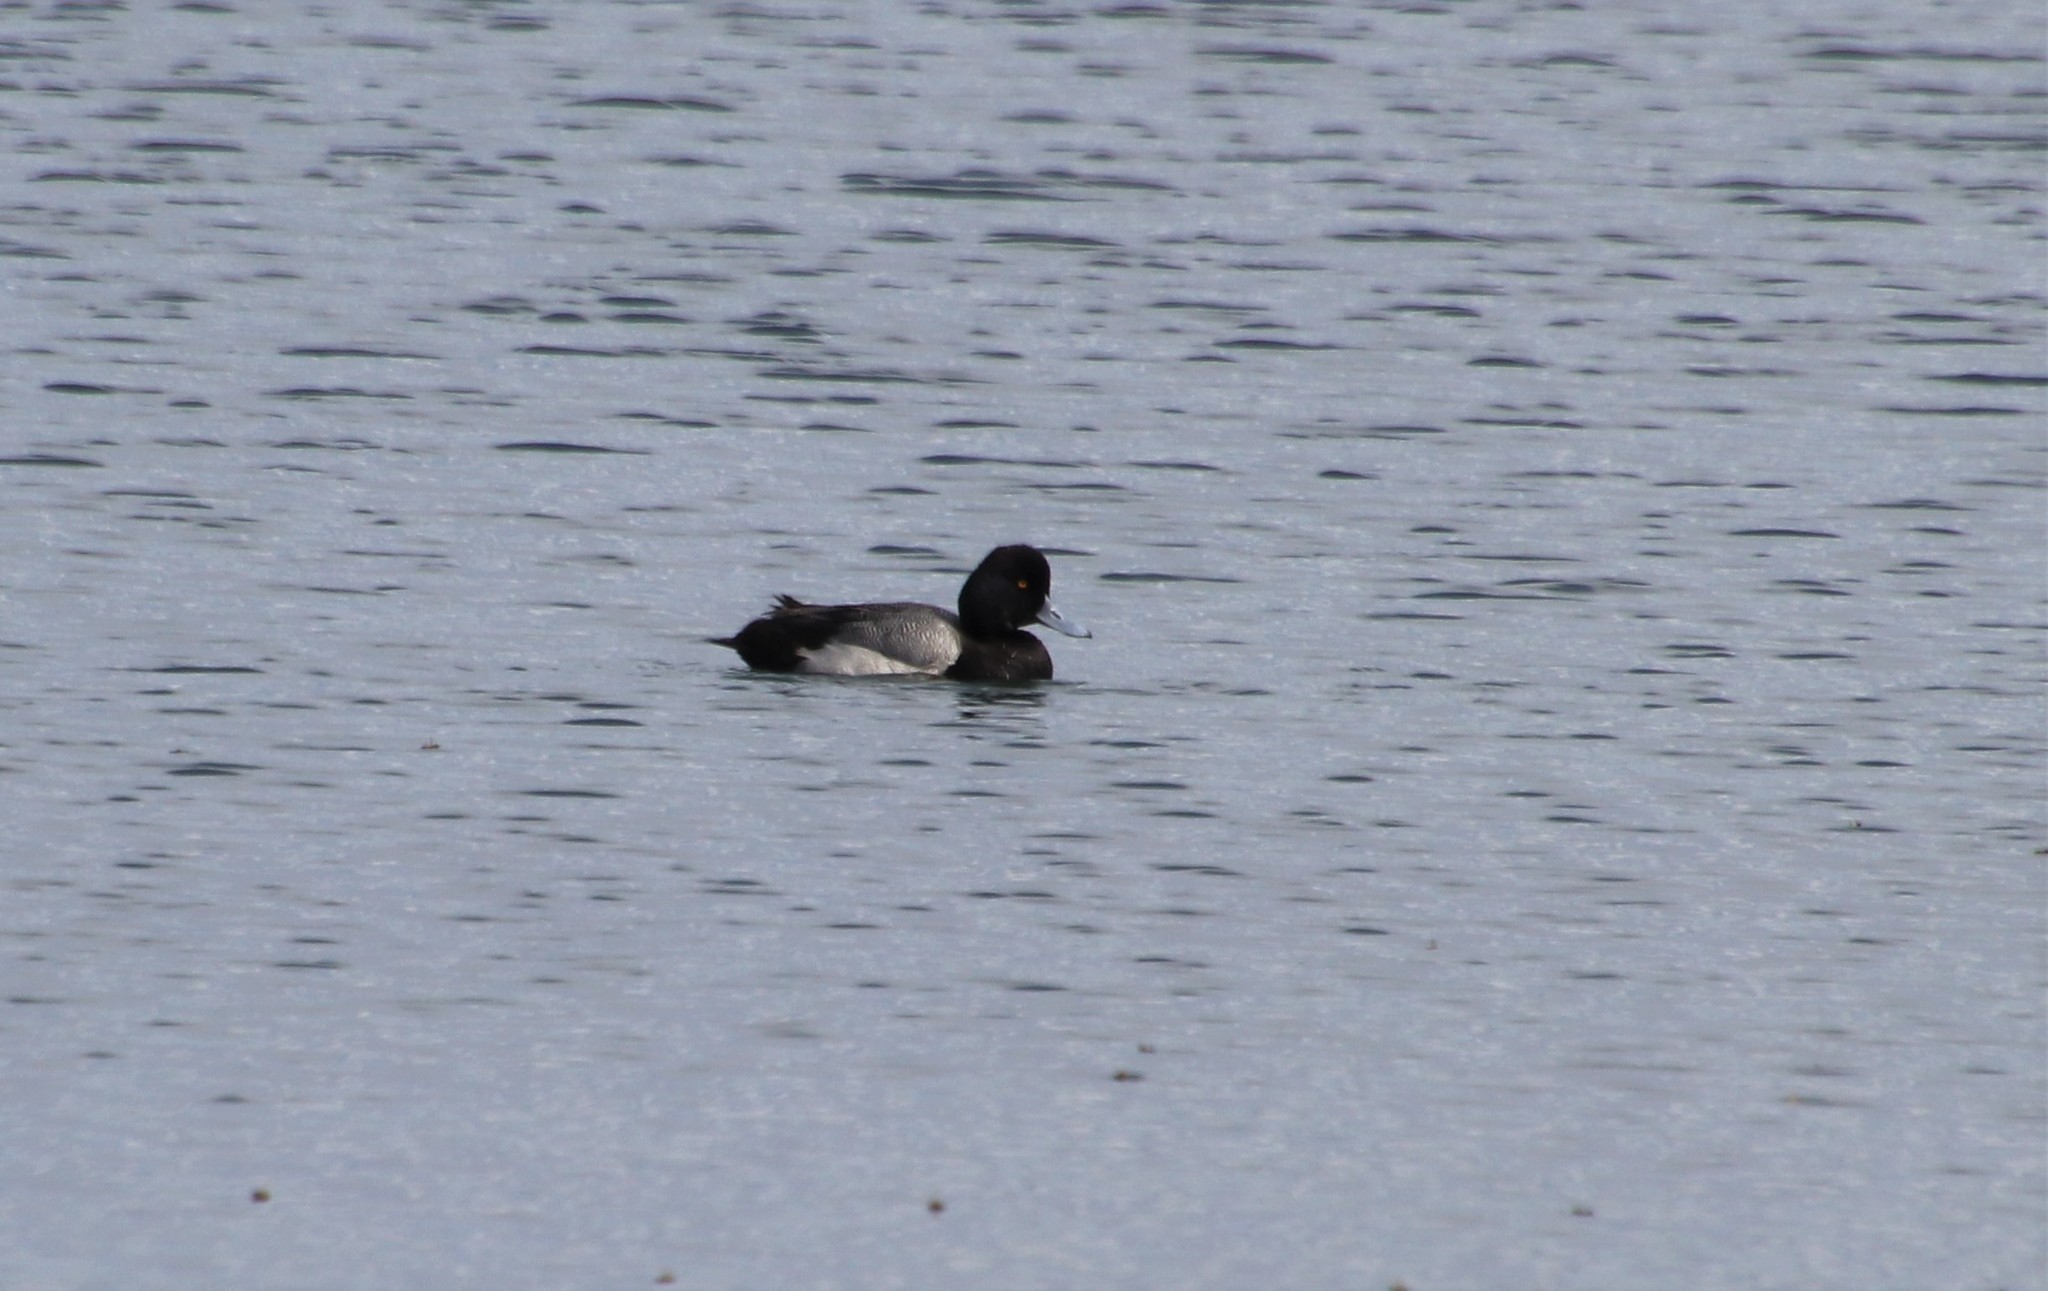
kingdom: Animalia
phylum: Chordata
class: Aves
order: Anseriformes
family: Anatidae
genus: Aythya
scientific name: Aythya affinis
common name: Lesser scaup
